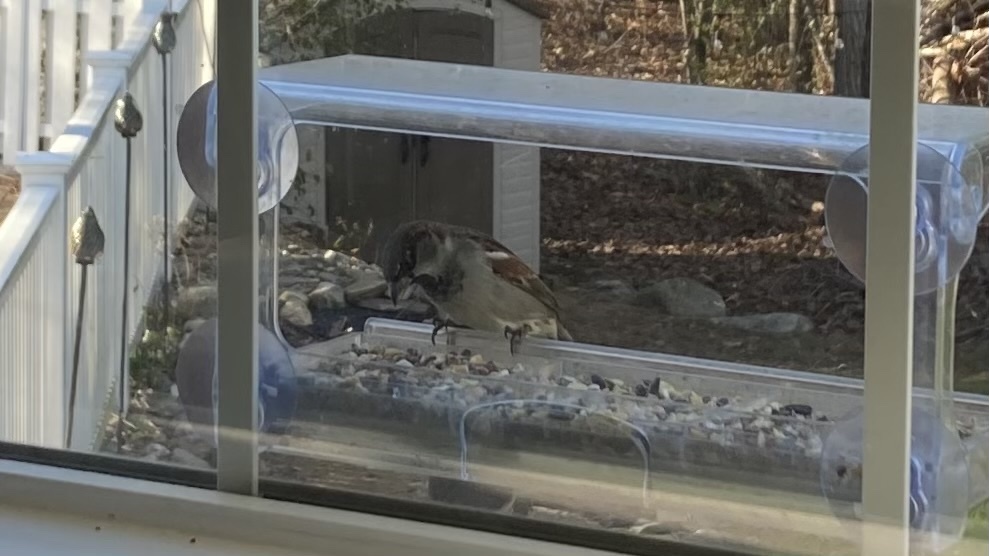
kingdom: Animalia
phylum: Chordata
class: Aves
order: Passeriformes
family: Passeridae
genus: Passer
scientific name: Passer domesticus
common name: House sparrow
